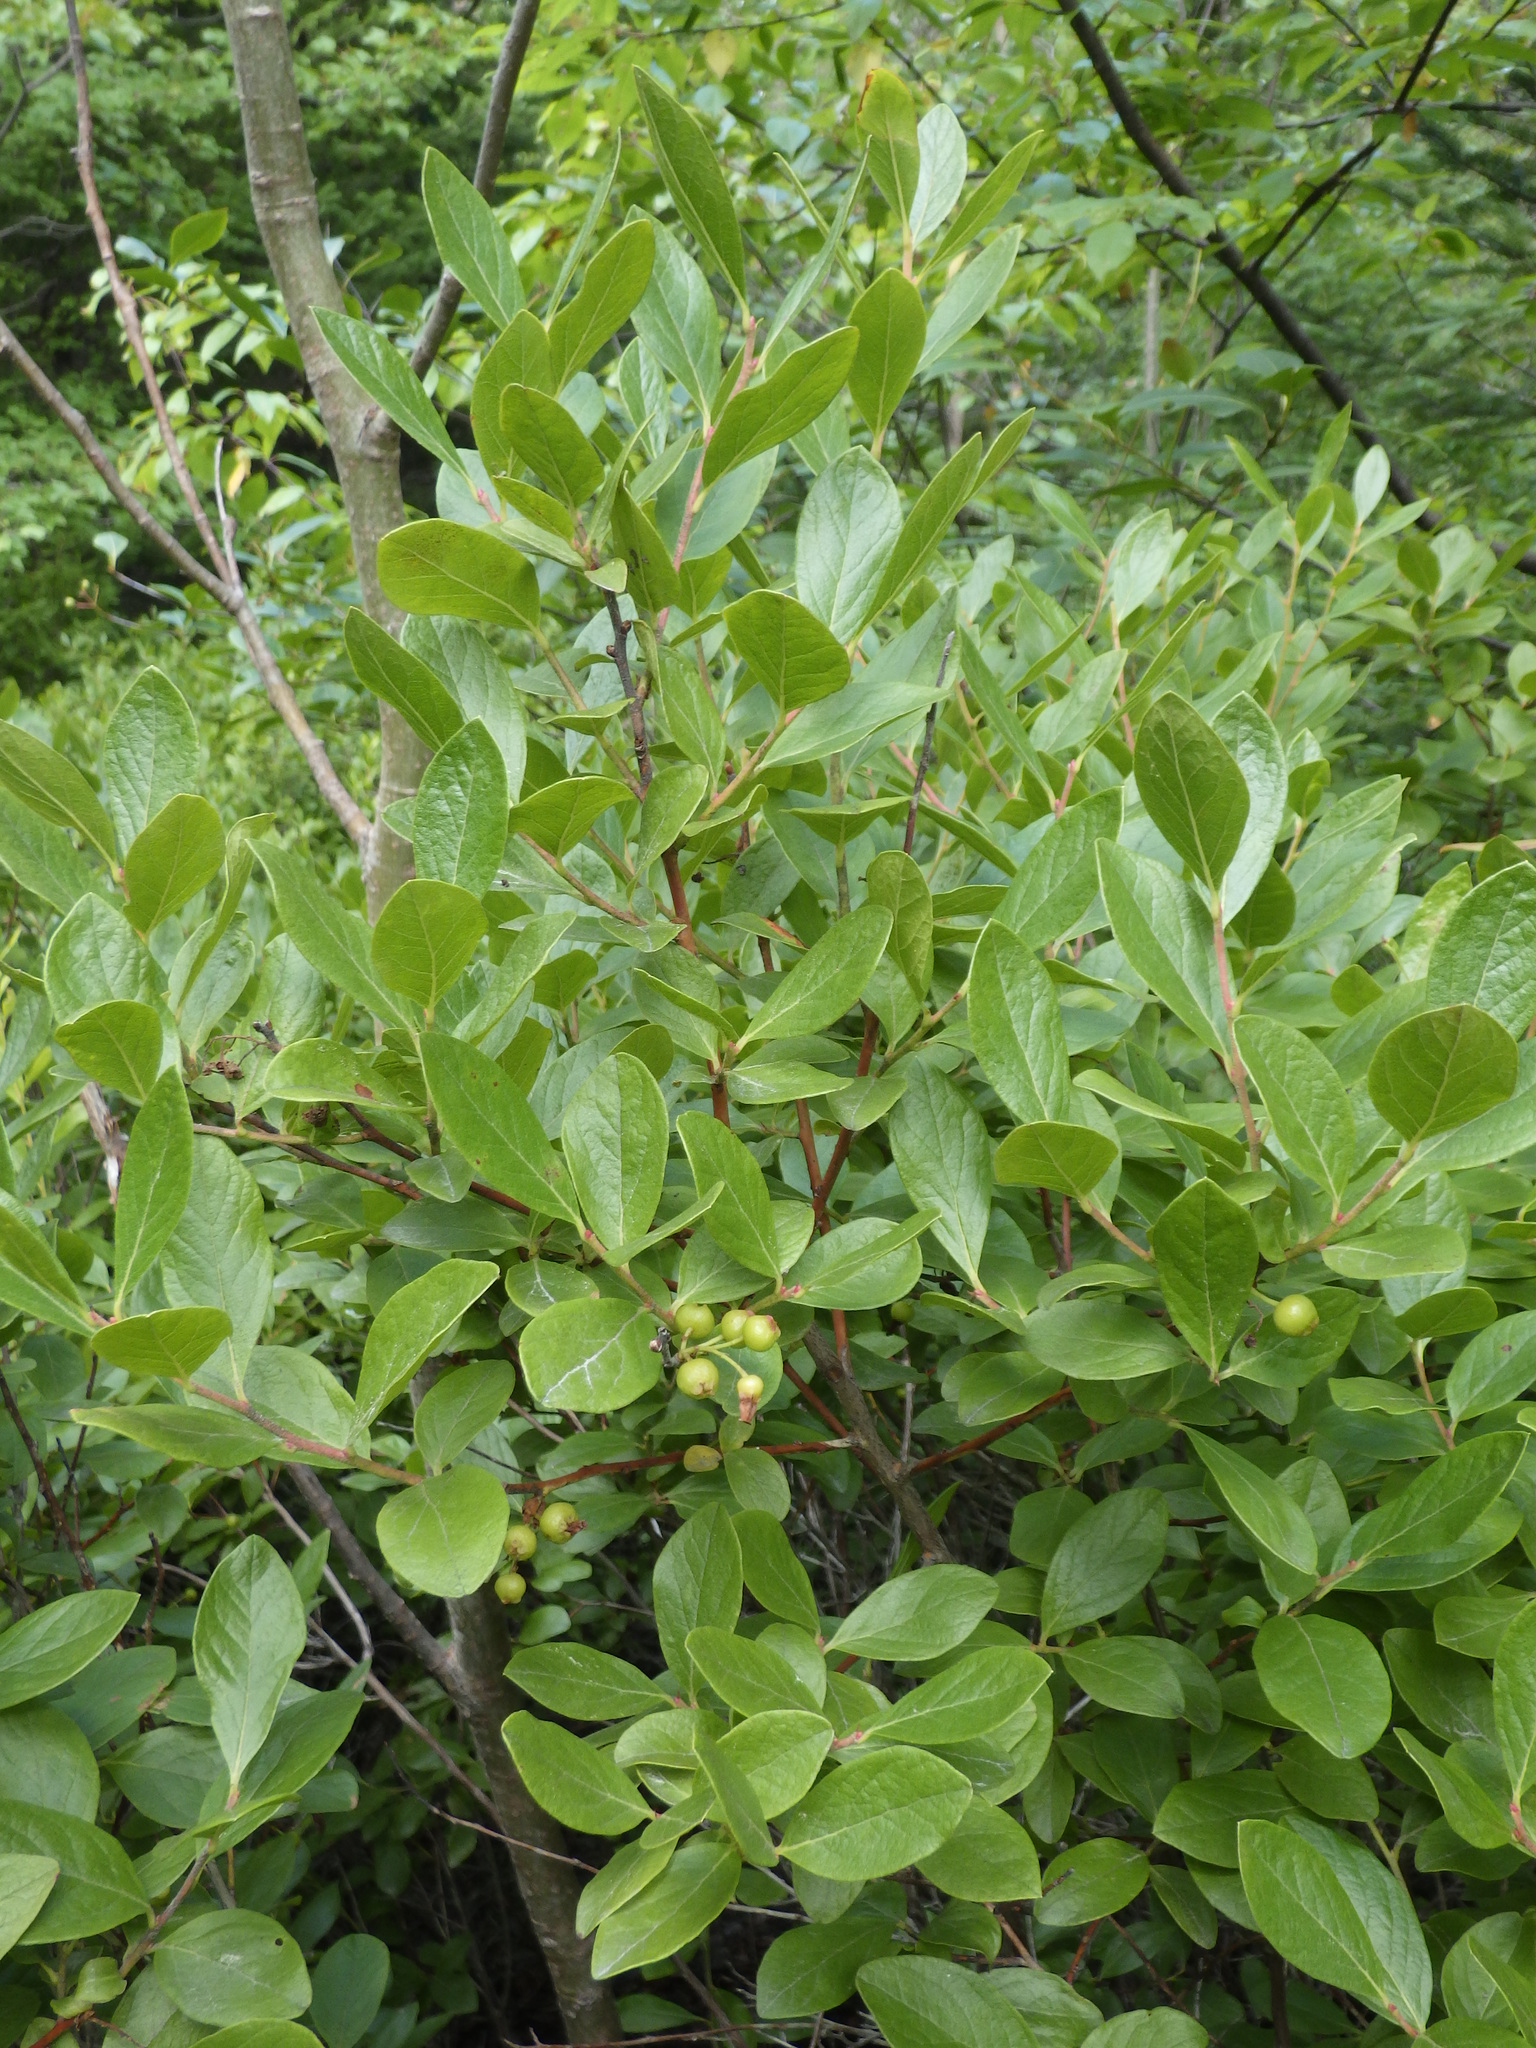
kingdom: Plantae
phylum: Tracheophyta
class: Magnoliopsida
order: Ericales
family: Ericaceae
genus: Gaylussacia
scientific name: Gaylussacia baccata
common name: Black huckleberry
